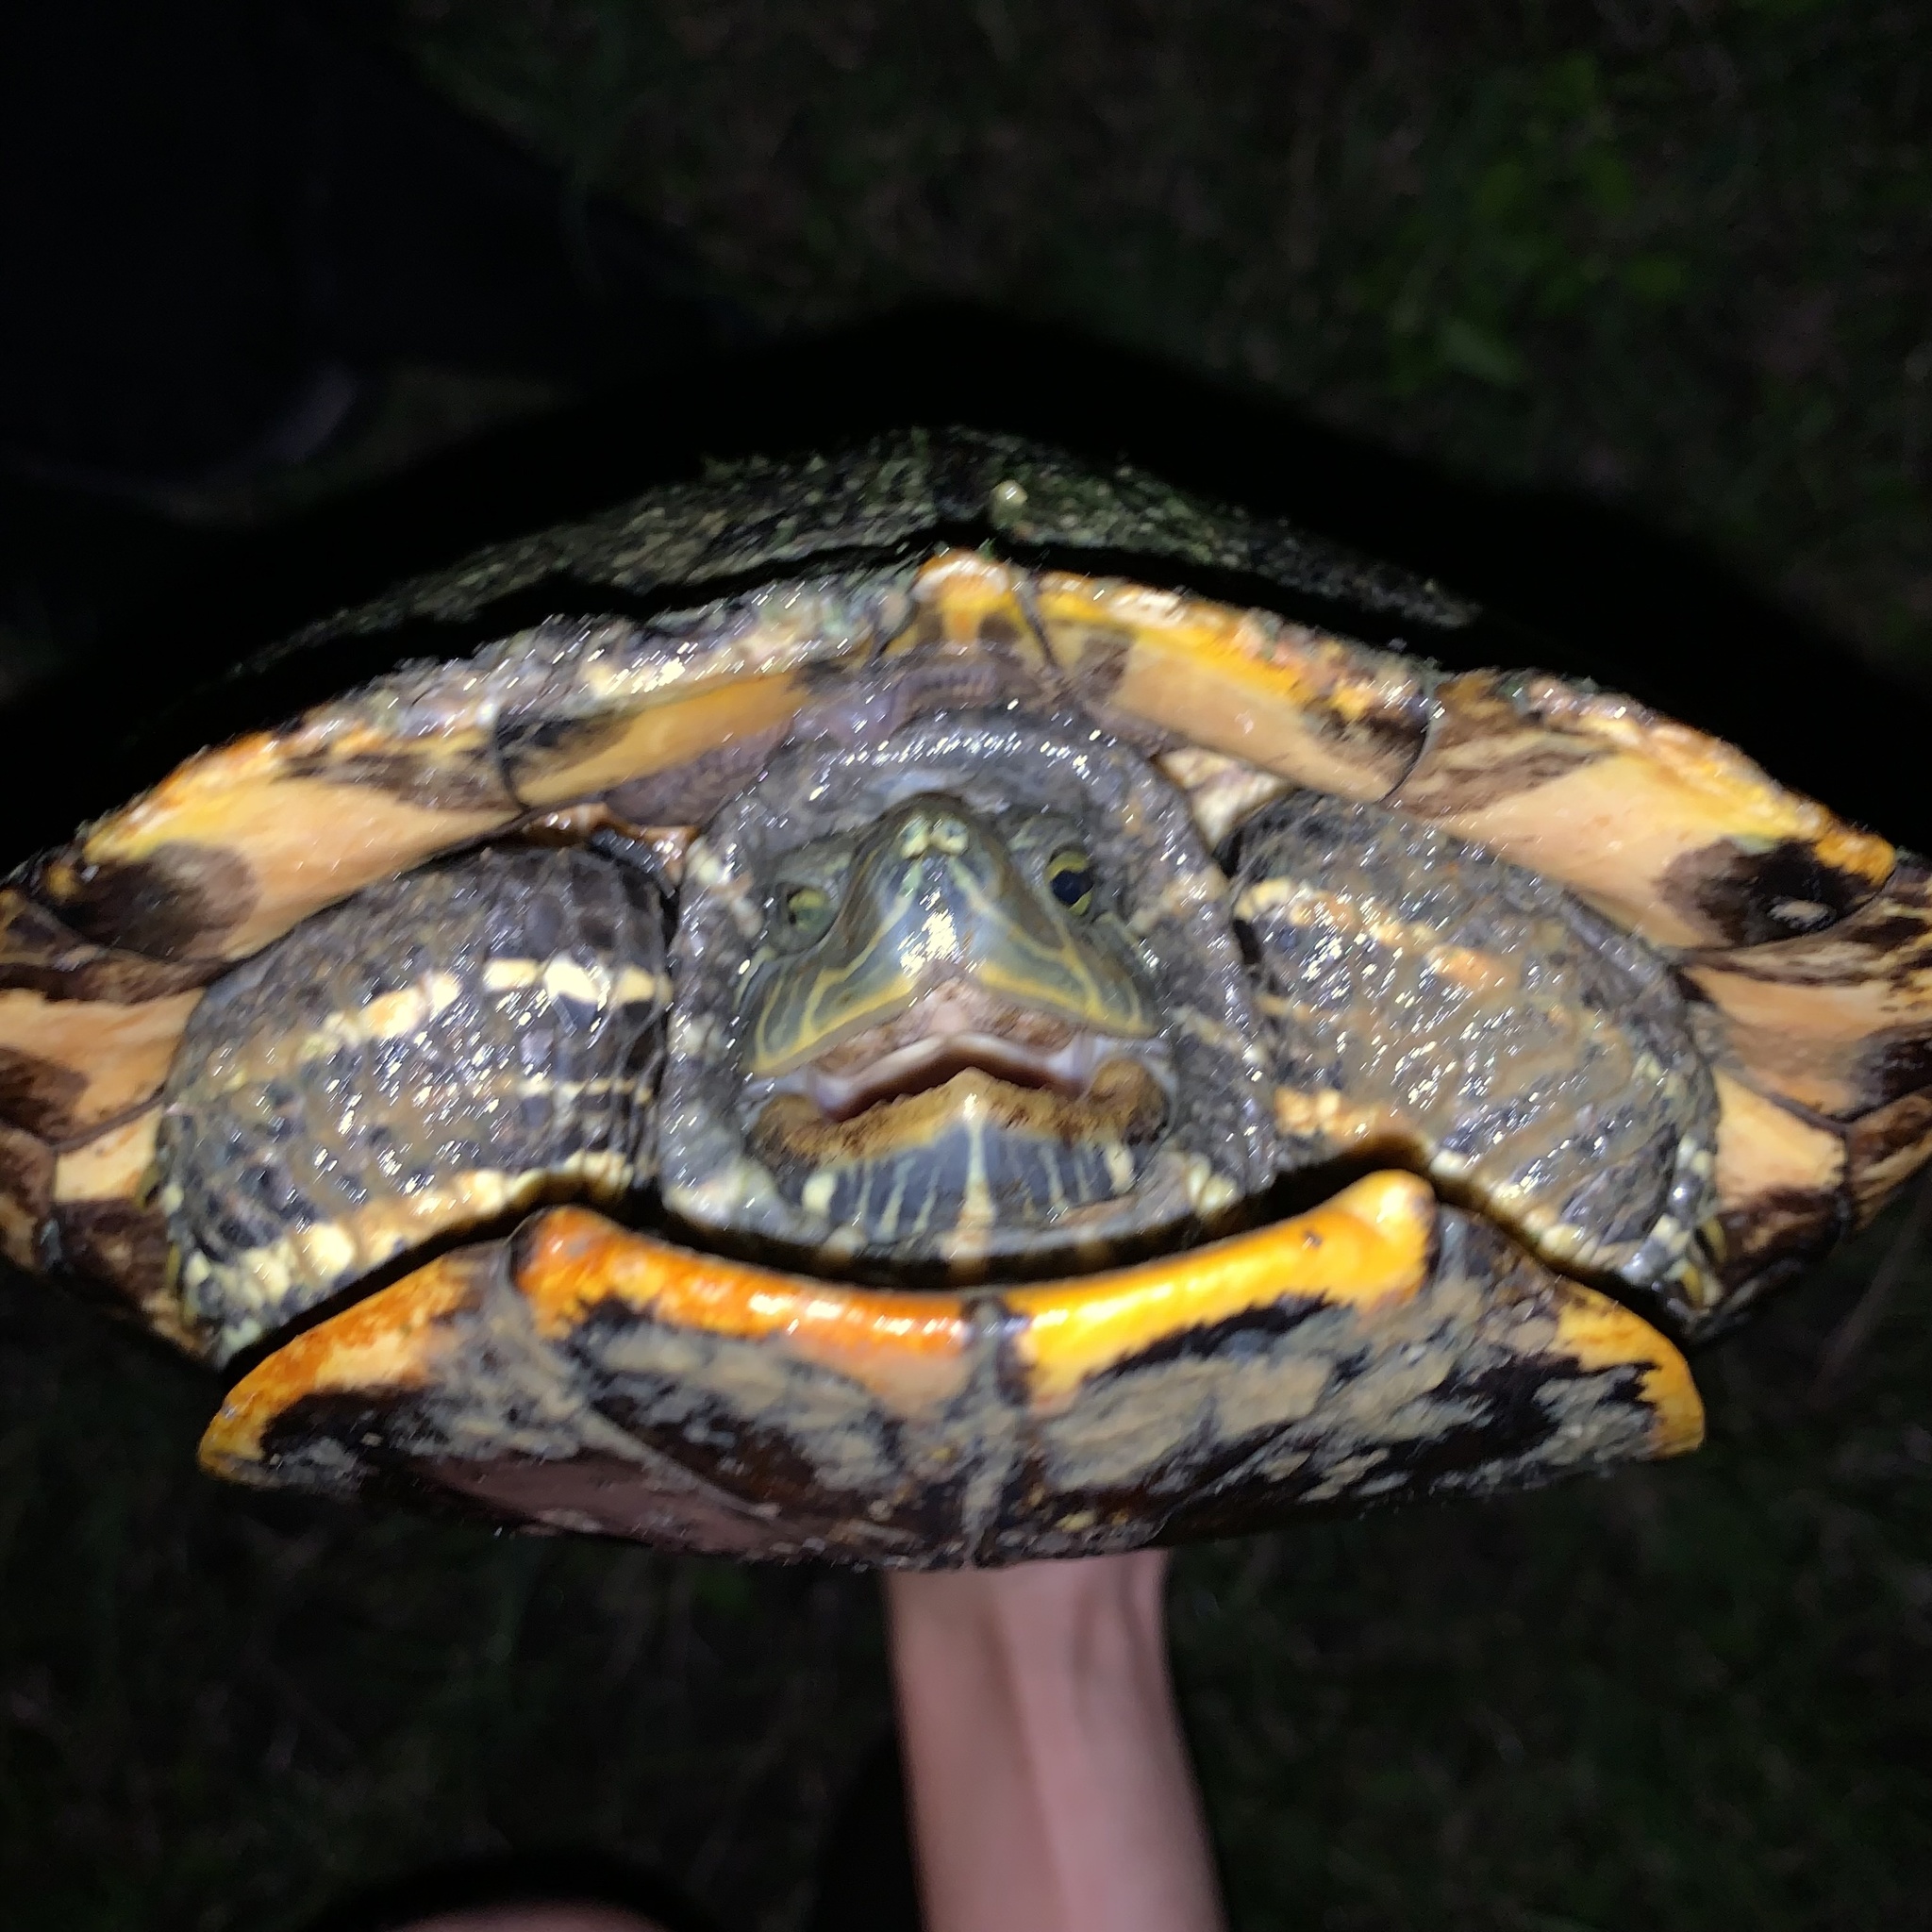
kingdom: Animalia
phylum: Chordata
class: Testudines
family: Emydidae
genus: Trachemys
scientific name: Trachemys scripta
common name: Slider
